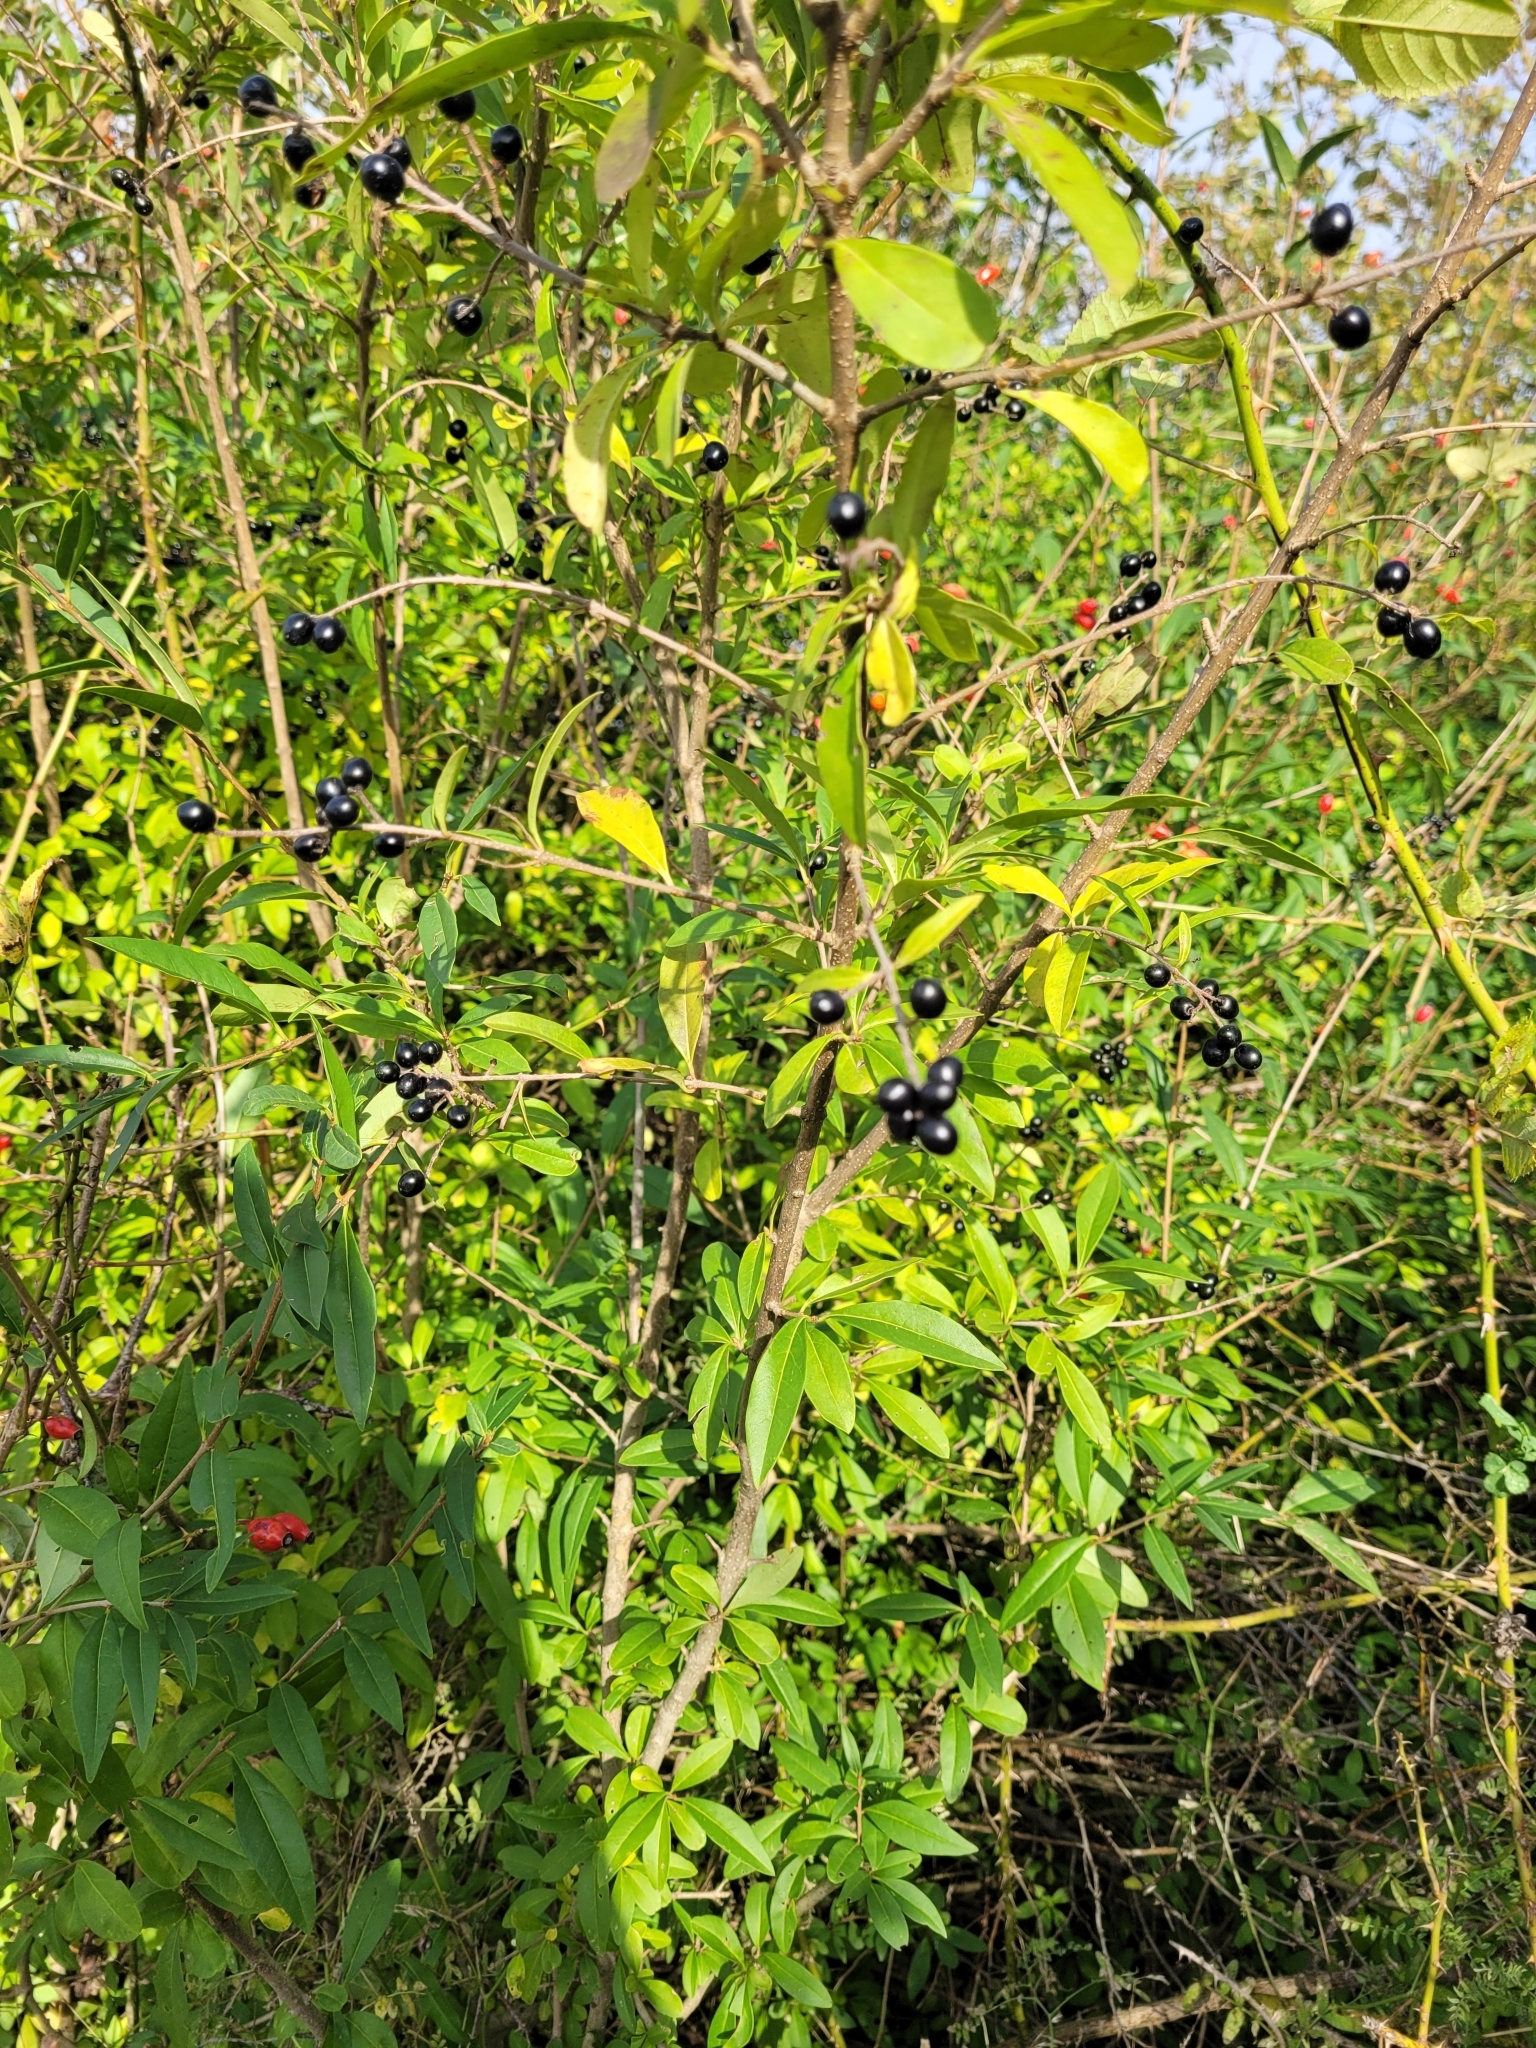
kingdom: Plantae
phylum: Tracheophyta
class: Magnoliopsida
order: Lamiales
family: Oleaceae
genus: Ligustrum
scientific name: Ligustrum vulgare
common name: Wild privet
